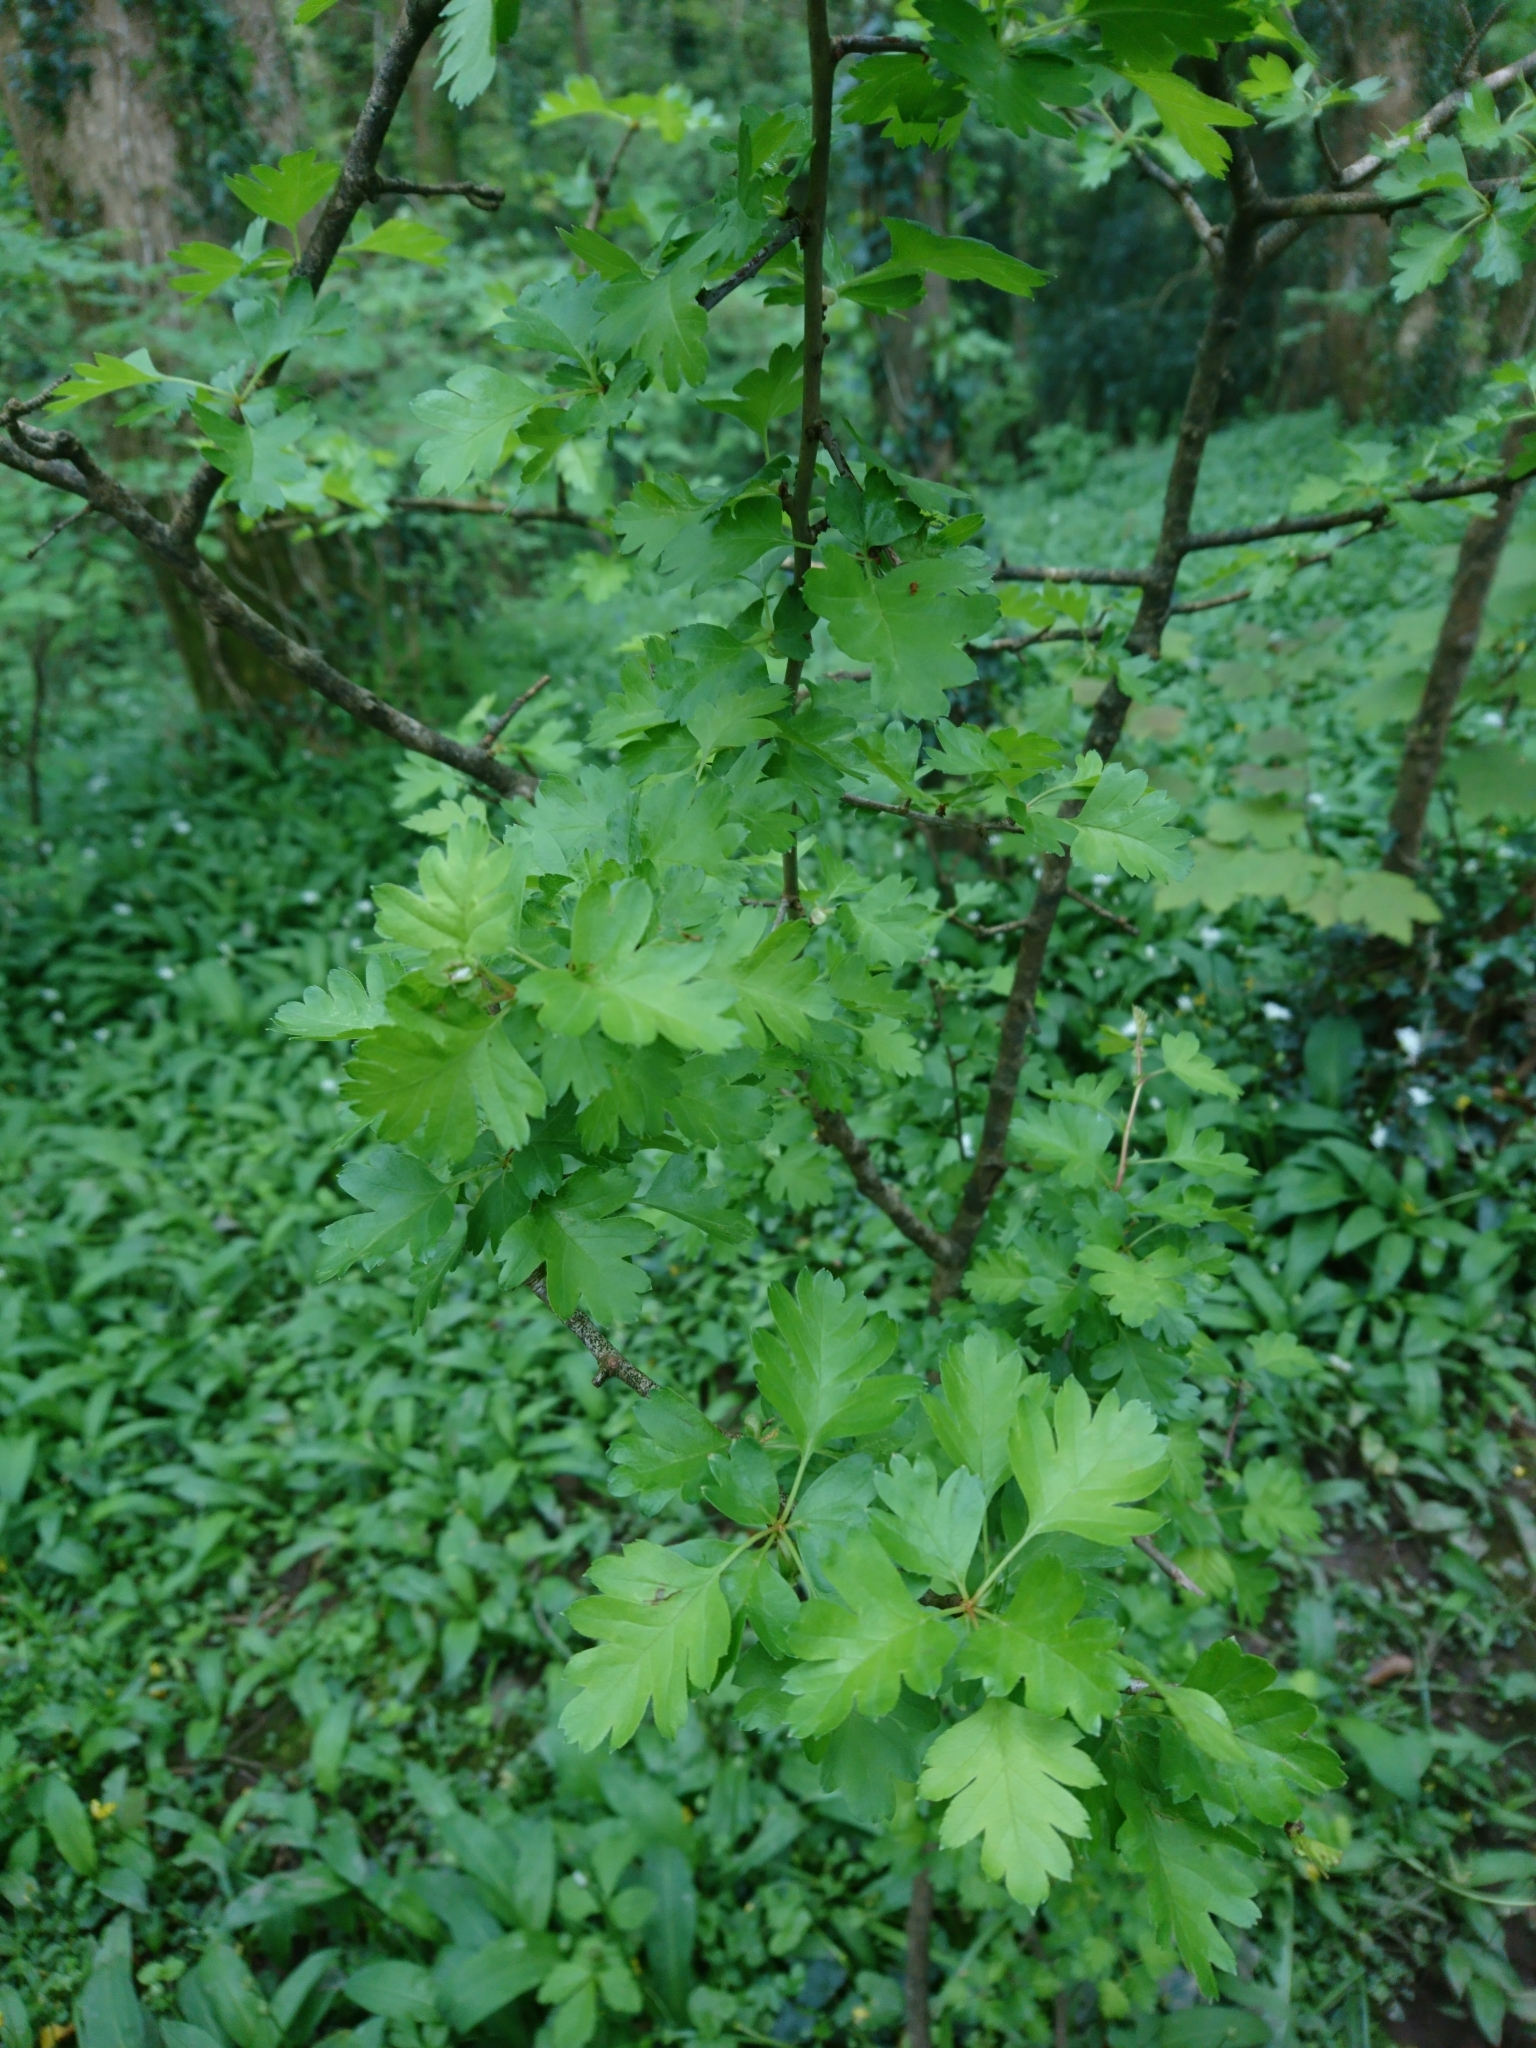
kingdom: Plantae
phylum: Tracheophyta
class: Magnoliopsida
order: Rosales
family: Rosaceae
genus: Crataegus
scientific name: Crataegus monogyna
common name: Hawthorn
